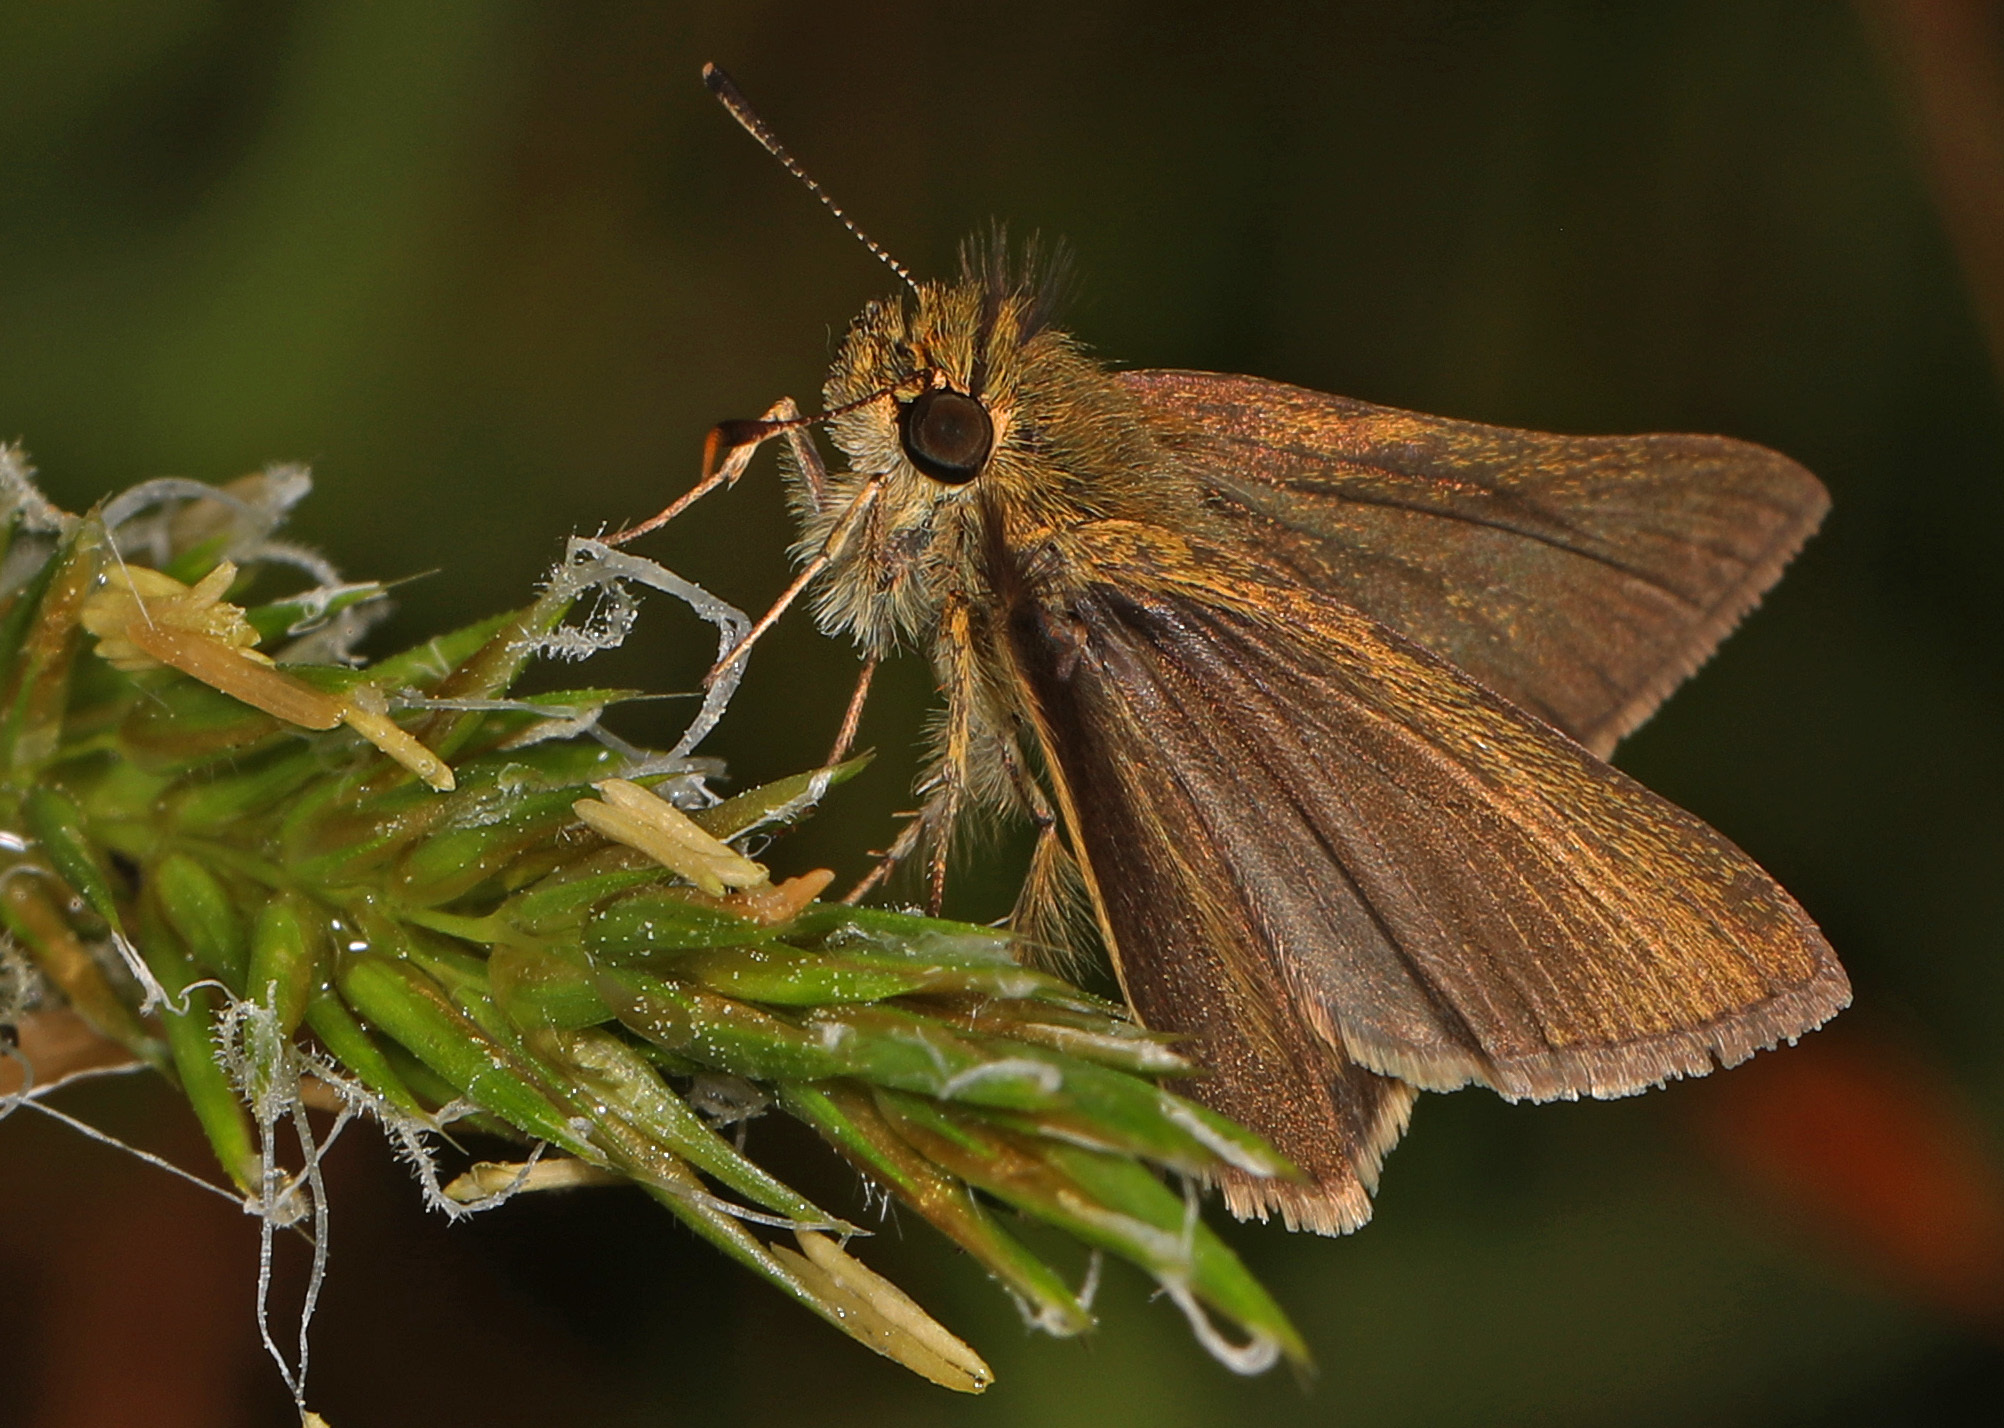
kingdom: Animalia
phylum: Arthropoda
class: Insecta
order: Lepidoptera
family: Hesperiidae
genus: Nastra
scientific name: Nastra lherminier
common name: Swarthy skipper
